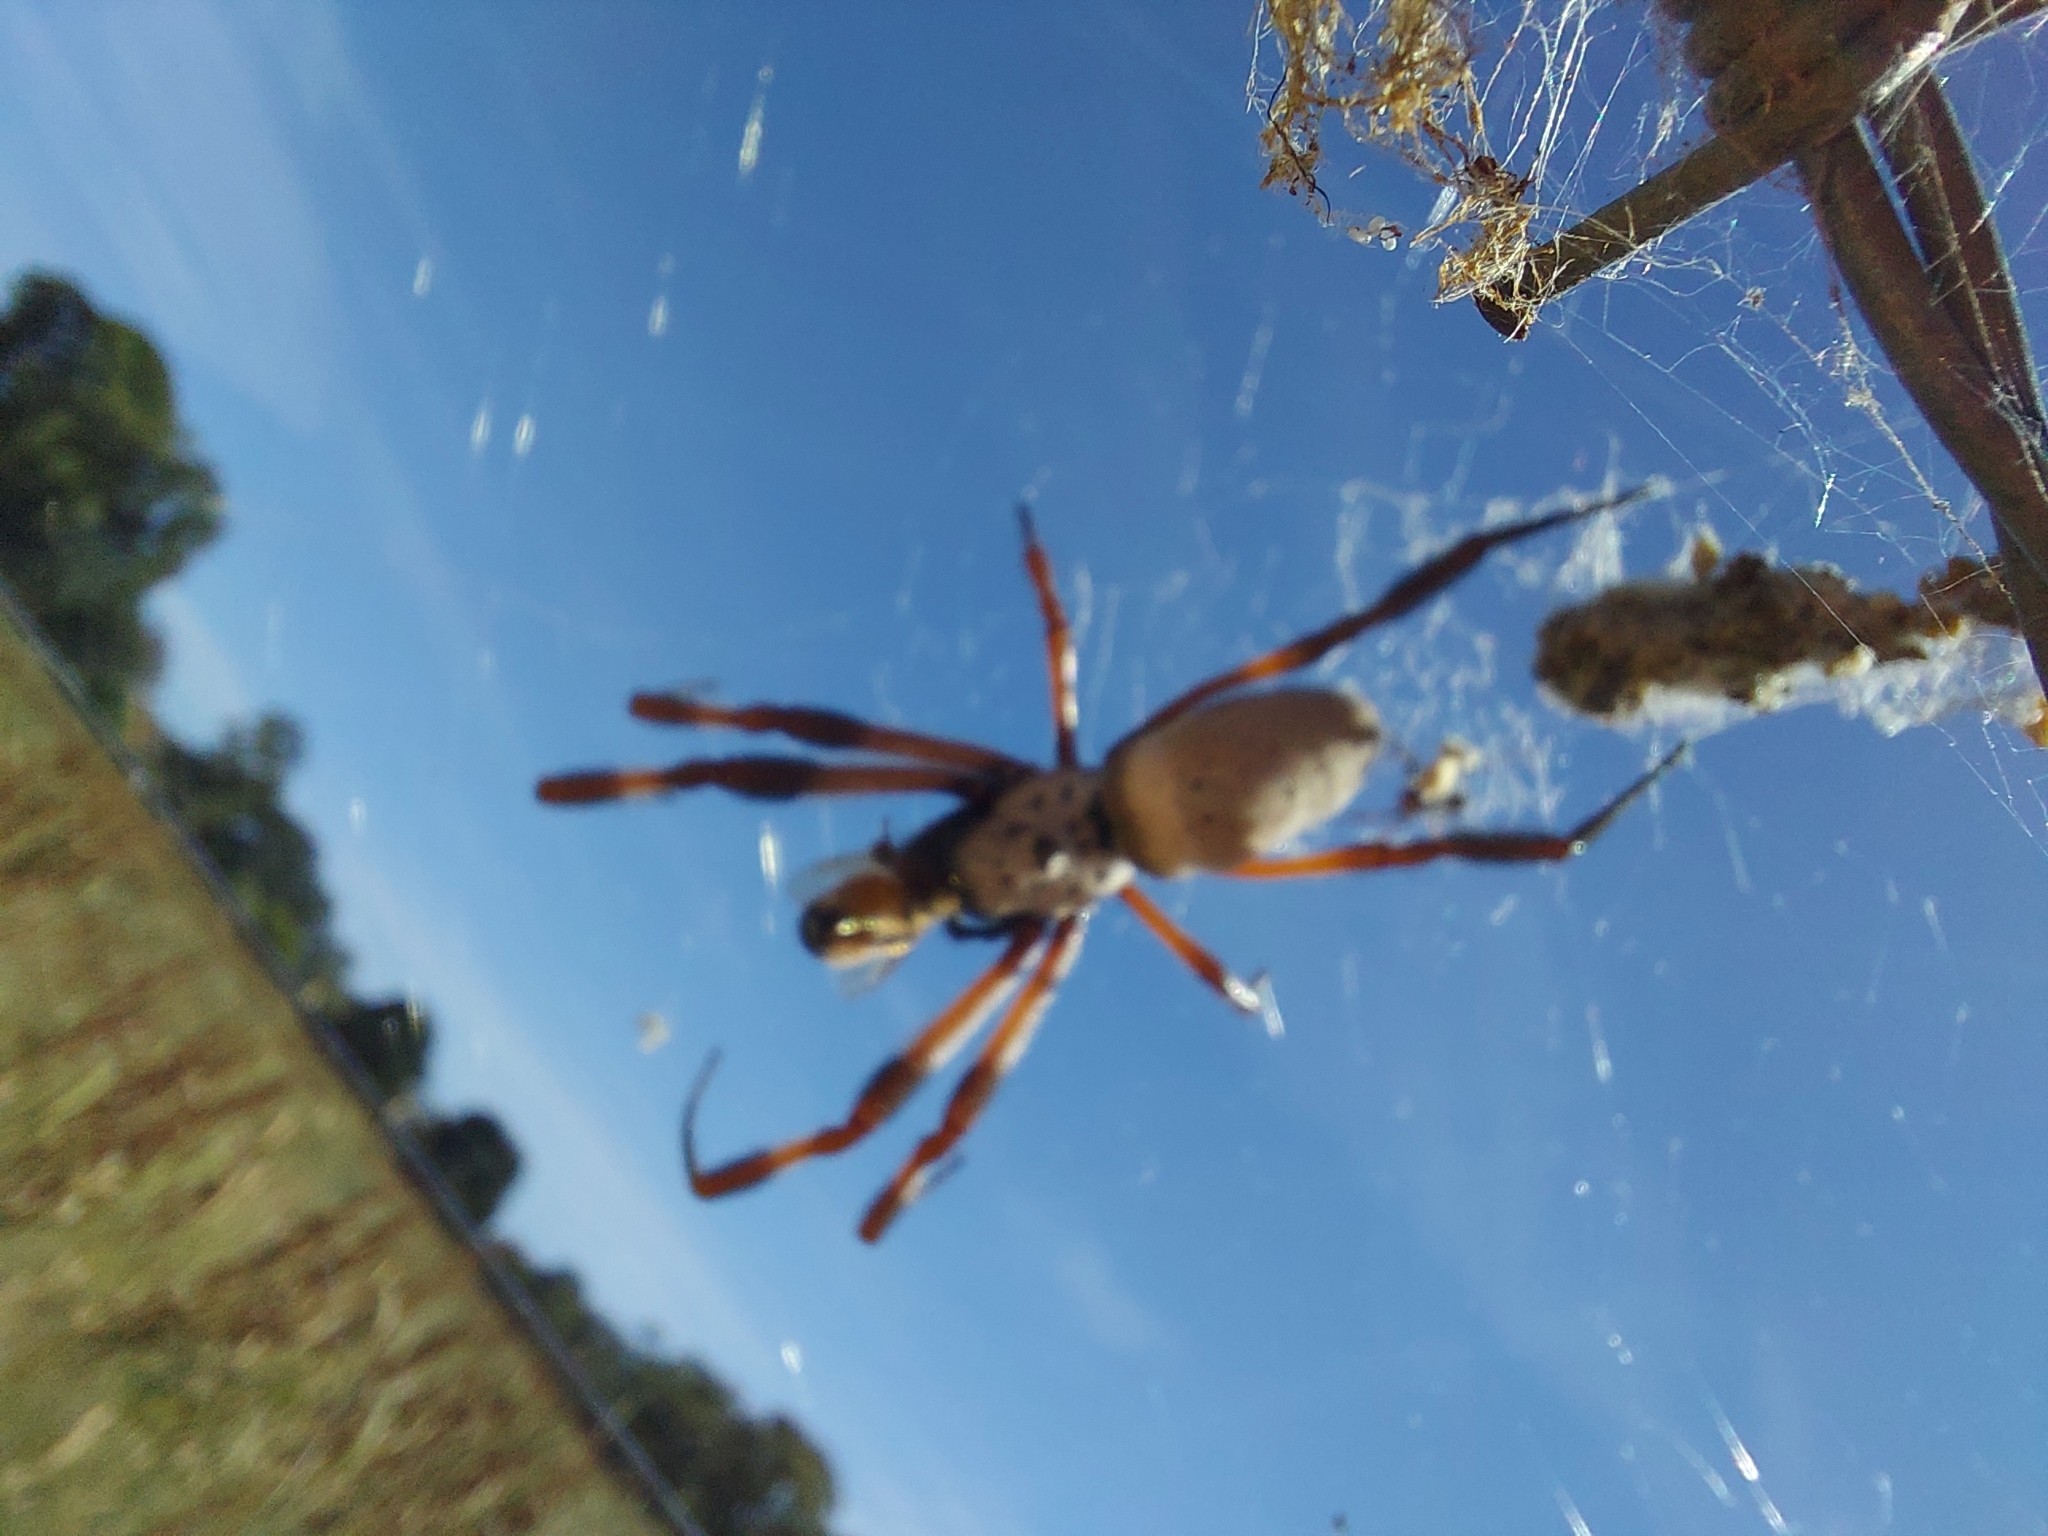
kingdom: Animalia
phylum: Arthropoda
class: Arachnida
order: Araneae
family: Araneidae
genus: Trichonephila
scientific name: Trichonephila edulis
